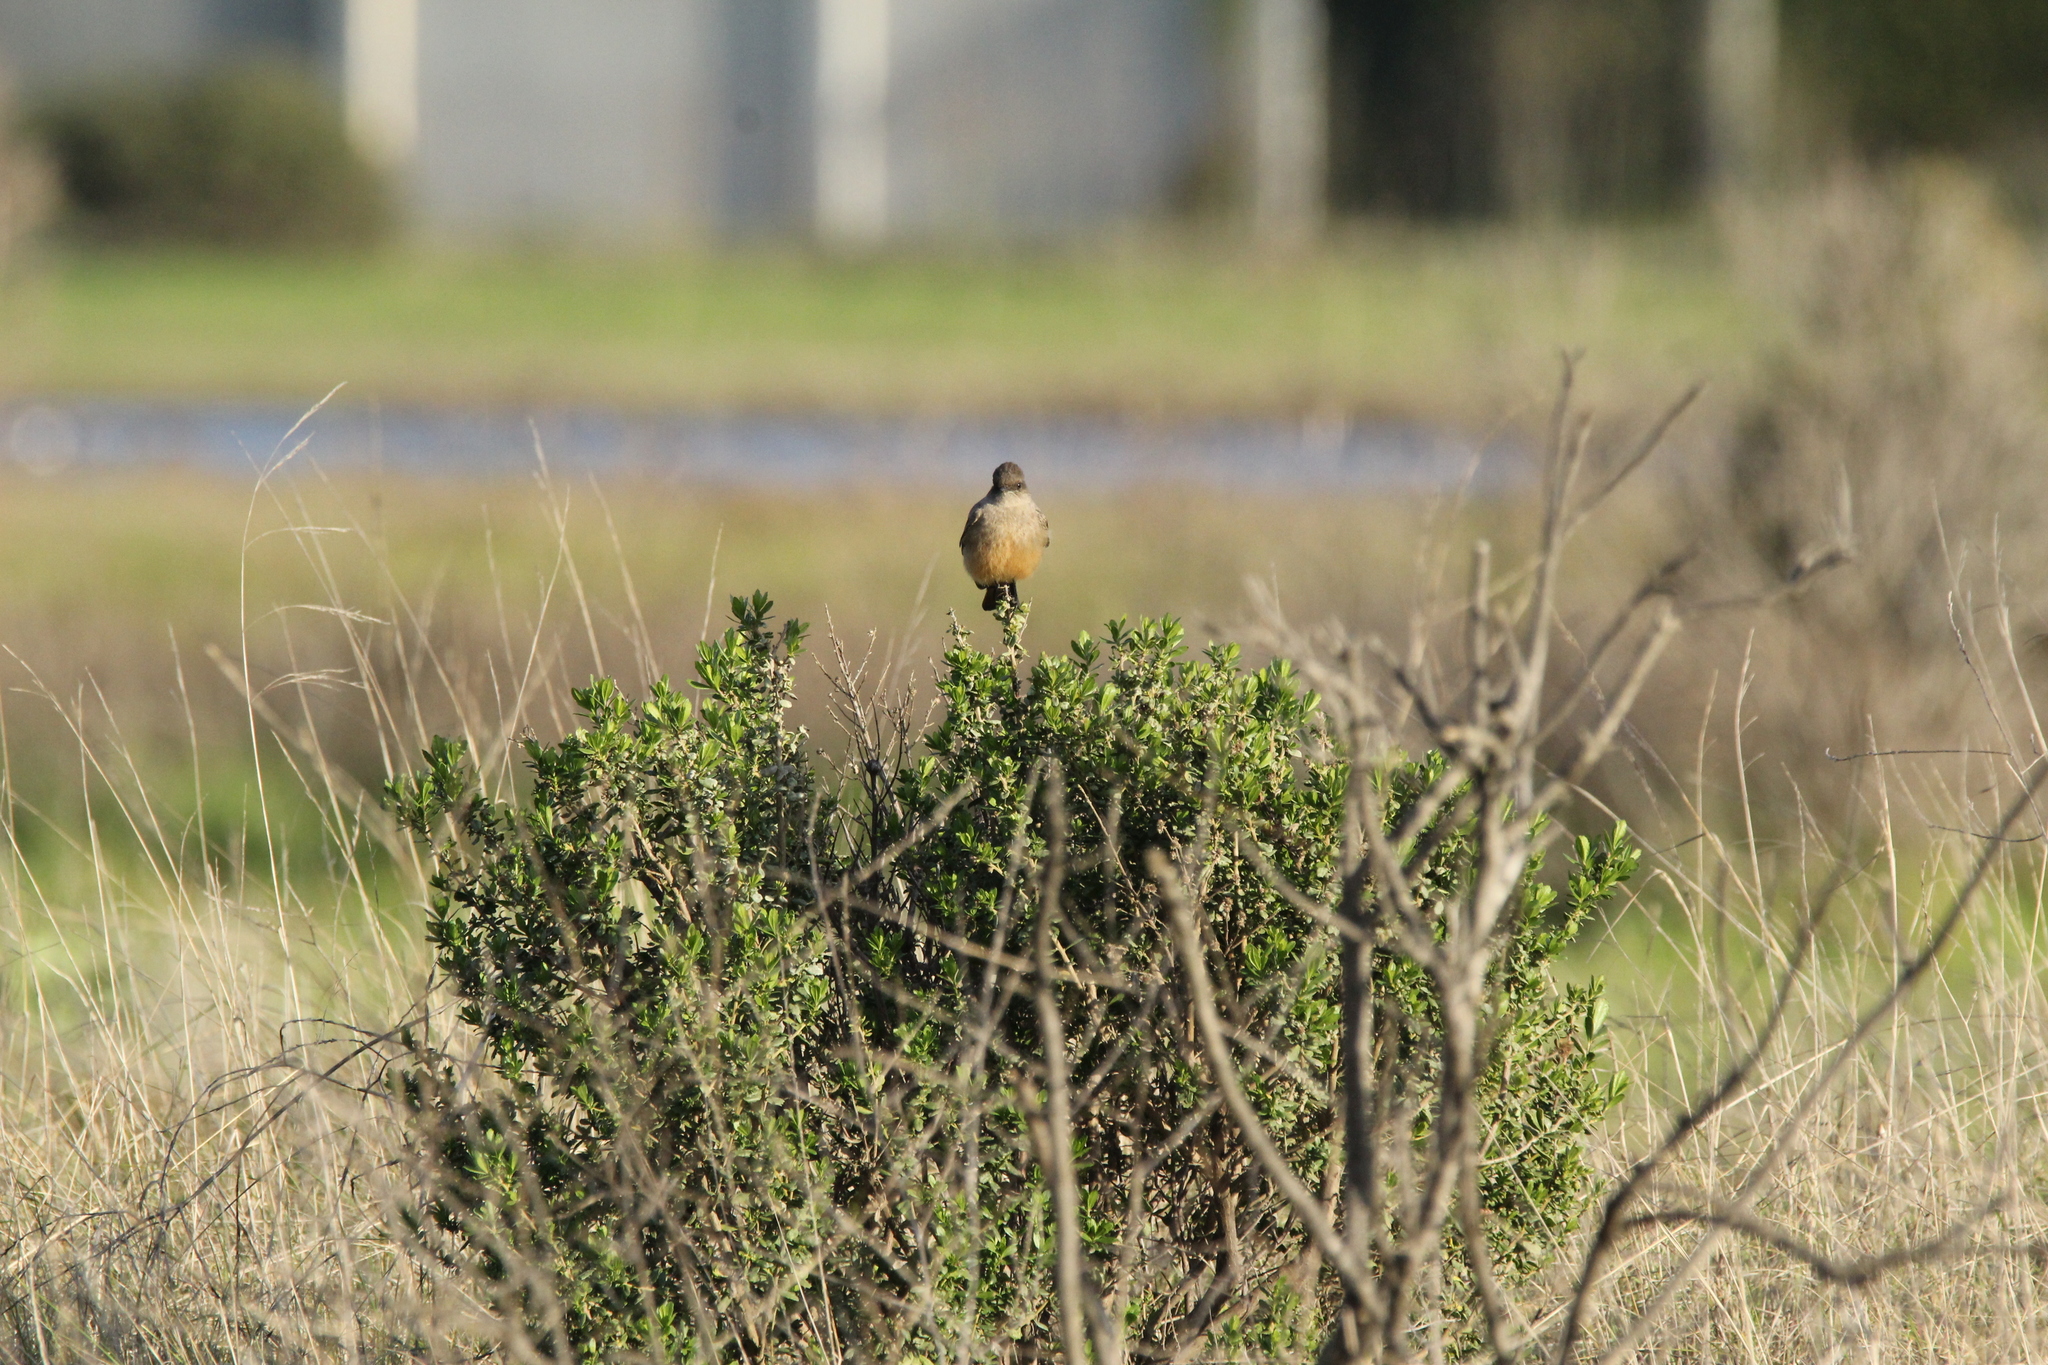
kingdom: Animalia
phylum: Chordata
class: Aves
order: Passeriformes
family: Tyrannidae
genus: Sayornis
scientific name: Sayornis saya
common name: Say's phoebe
